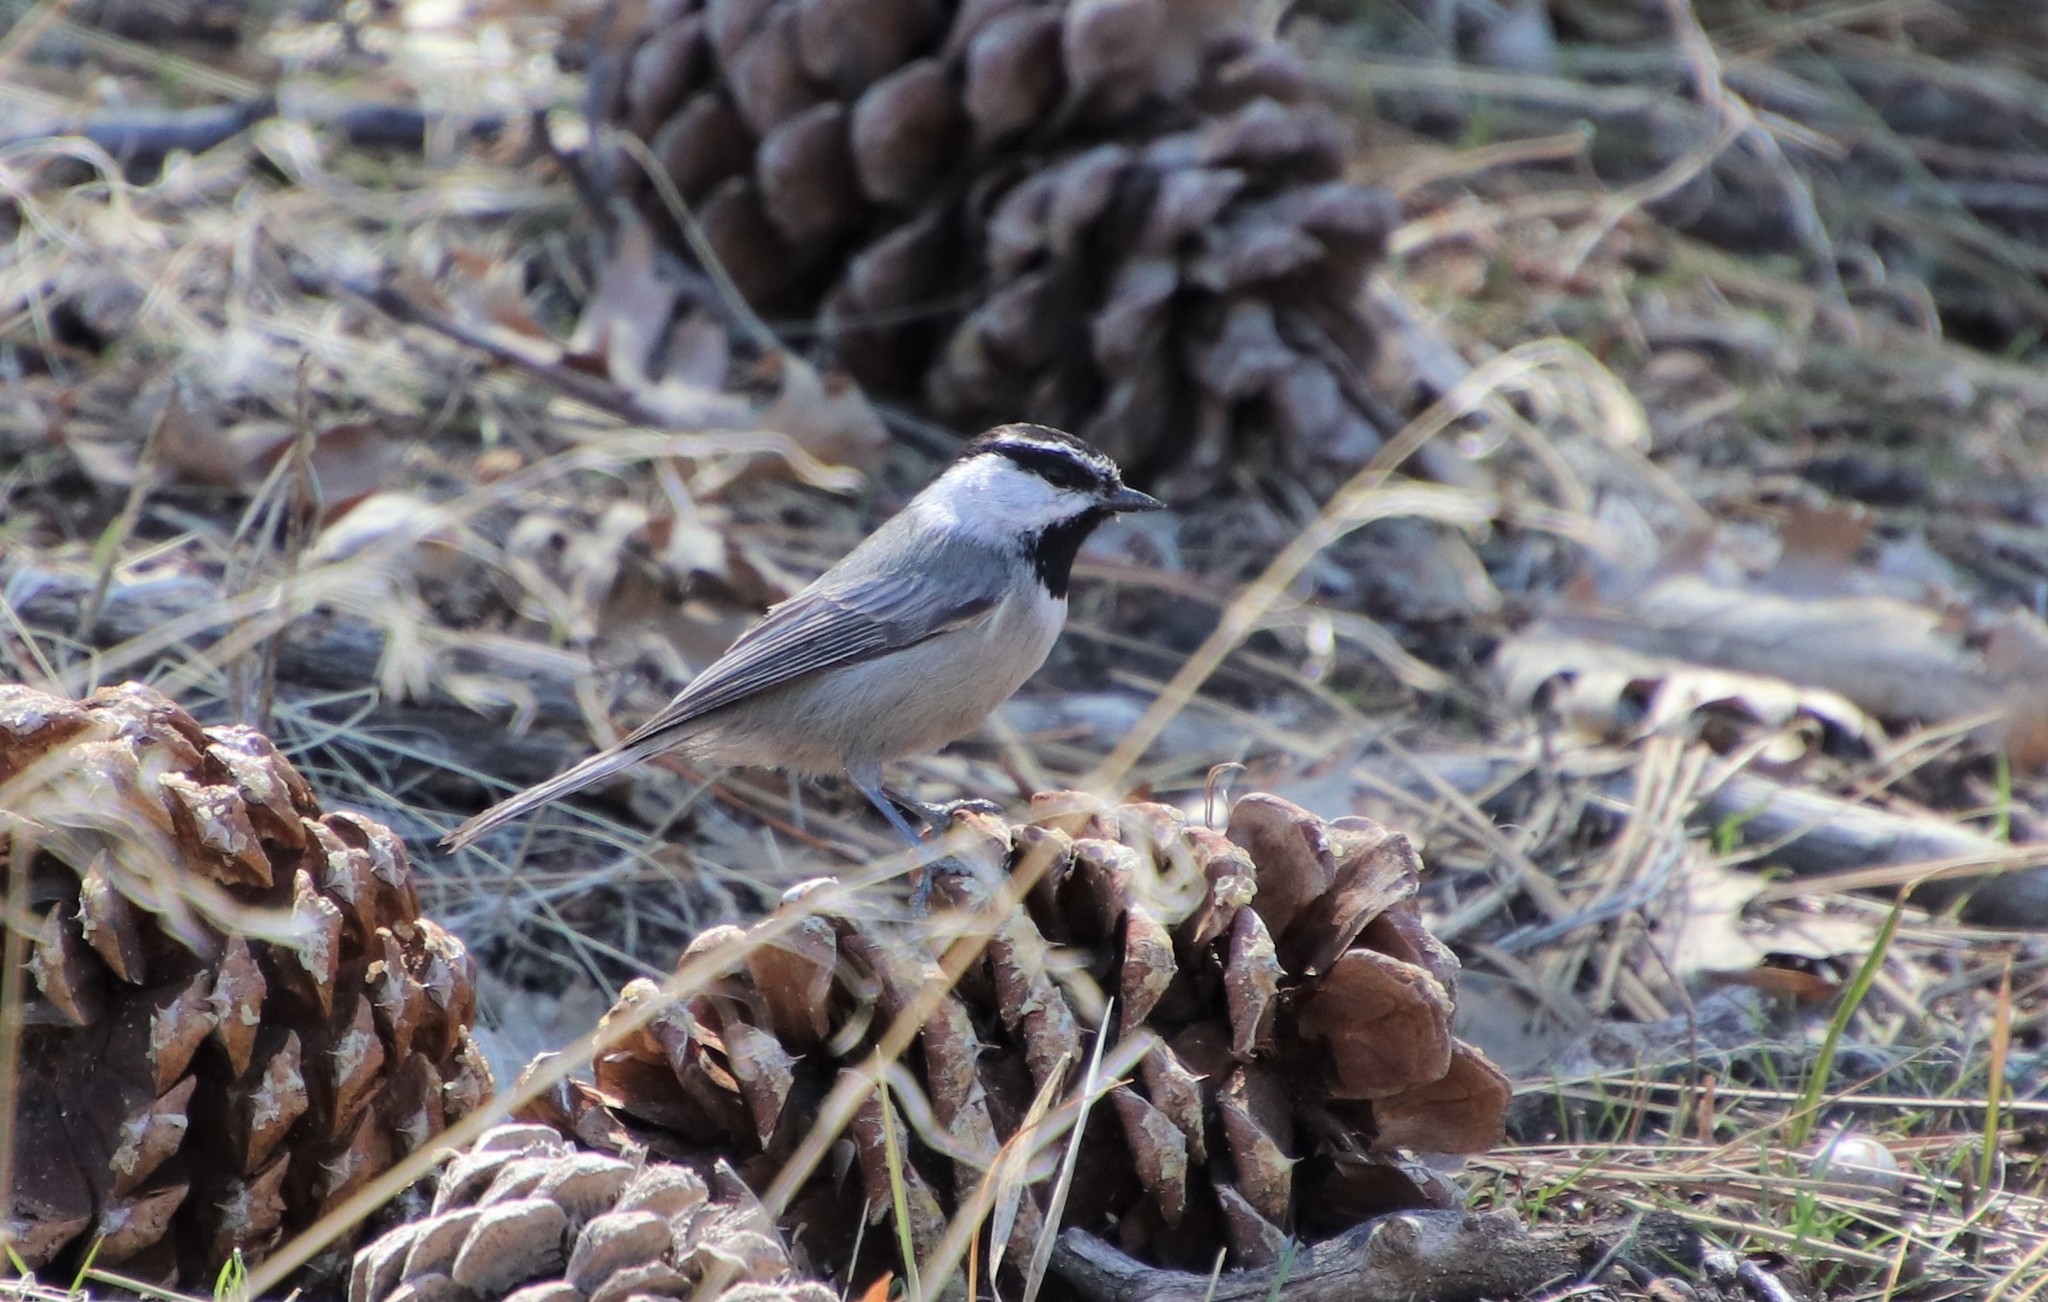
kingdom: Animalia
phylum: Chordata
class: Aves
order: Passeriformes
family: Paridae
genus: Poecile
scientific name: Poecile gambeli
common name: Mountain chickadee
